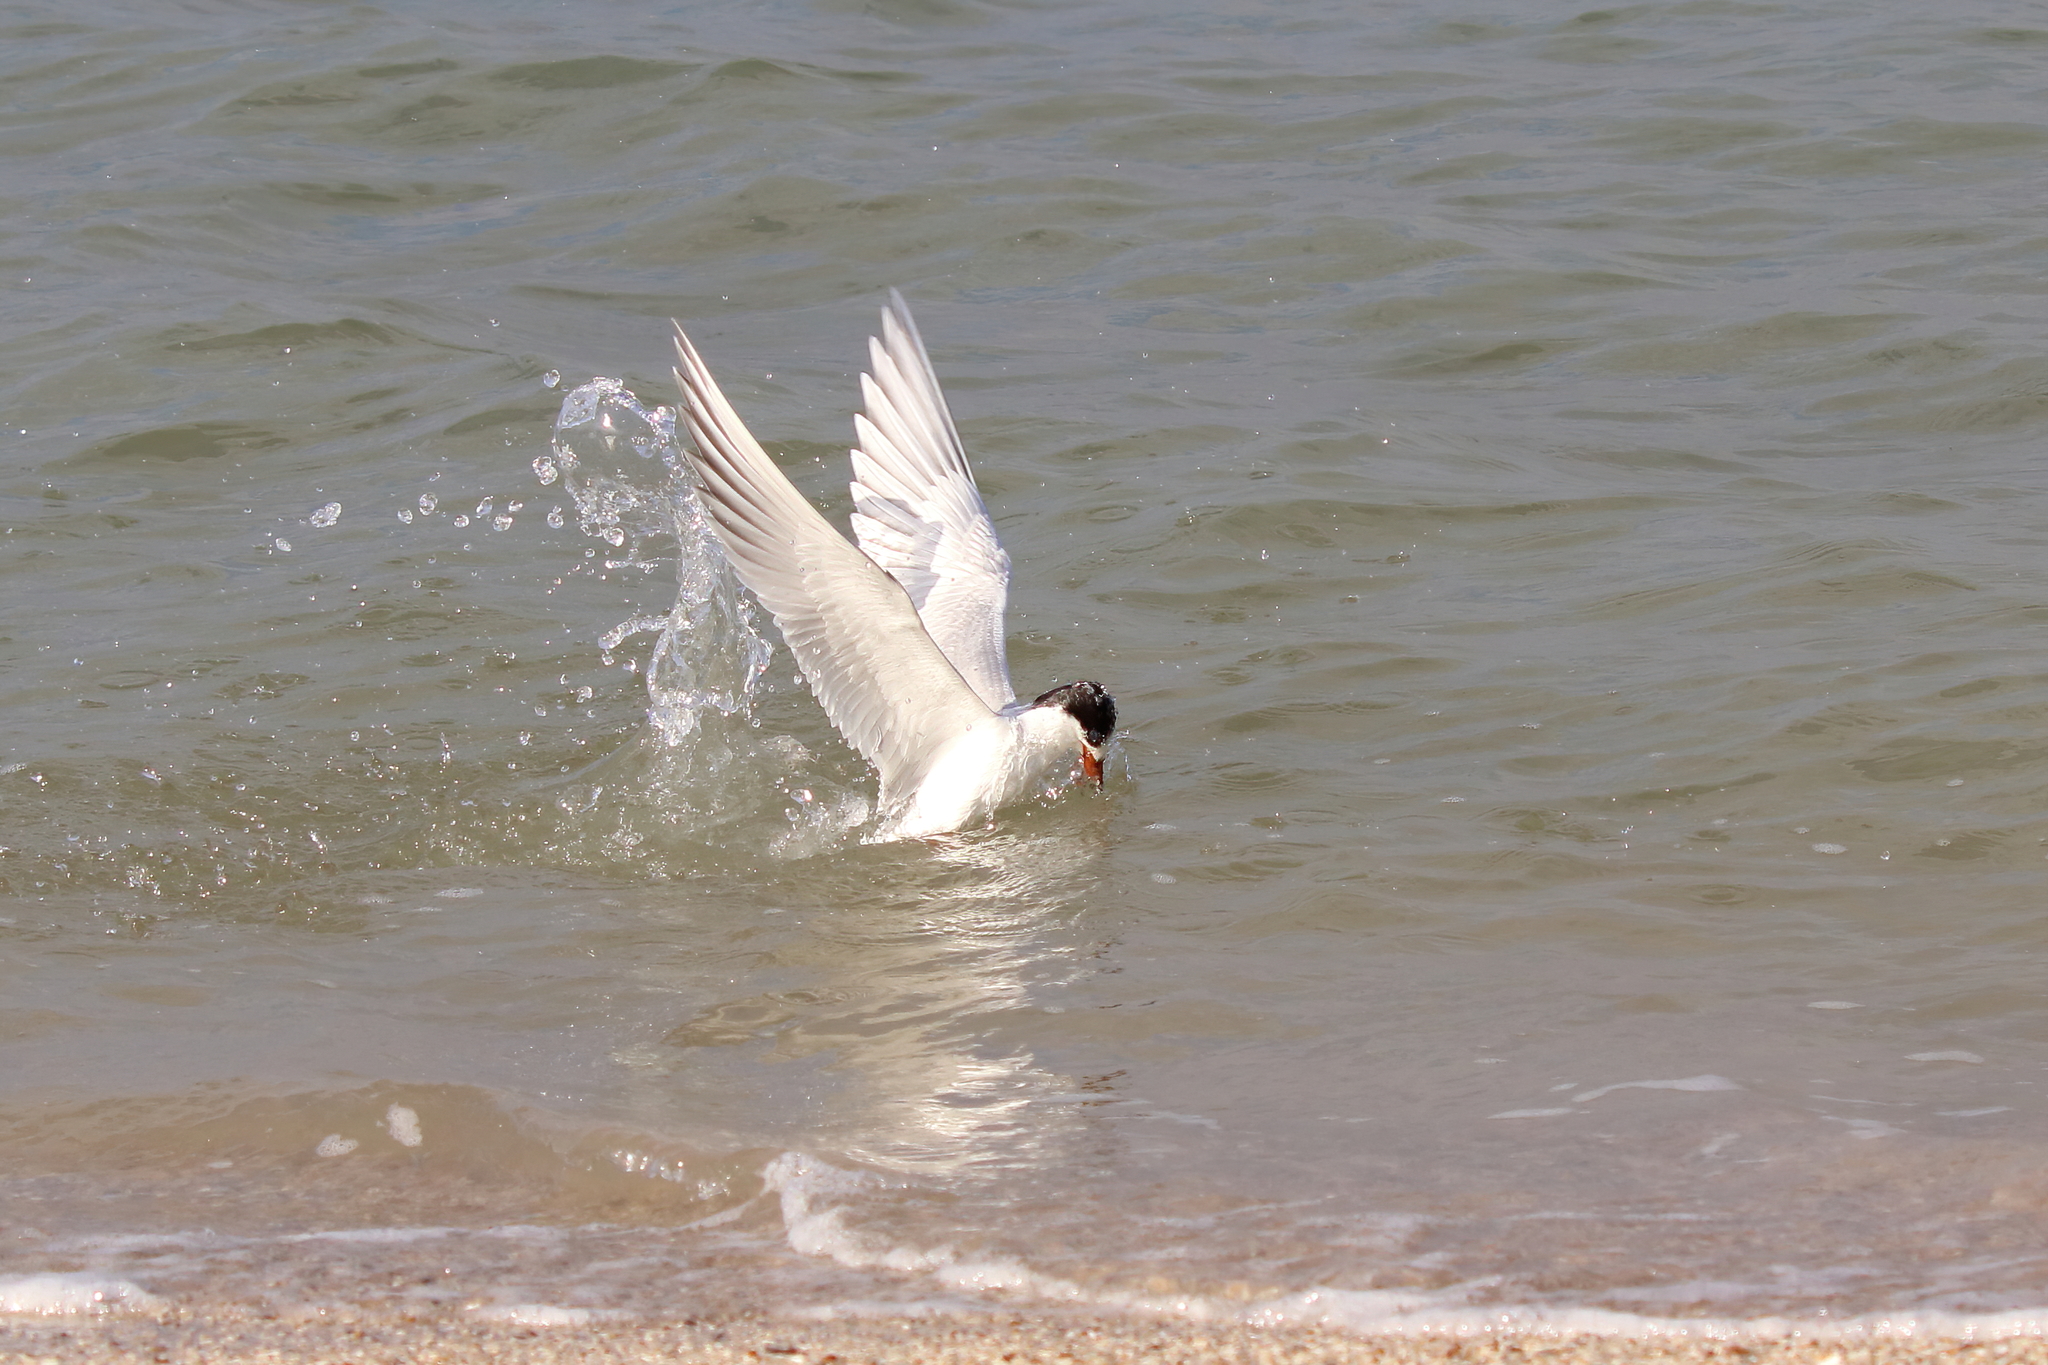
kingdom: Animalia
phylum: Chordata
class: Aves
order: Charadriiformes
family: Laridae
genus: Sterna
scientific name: Sterna forsteri
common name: Forster's tern
